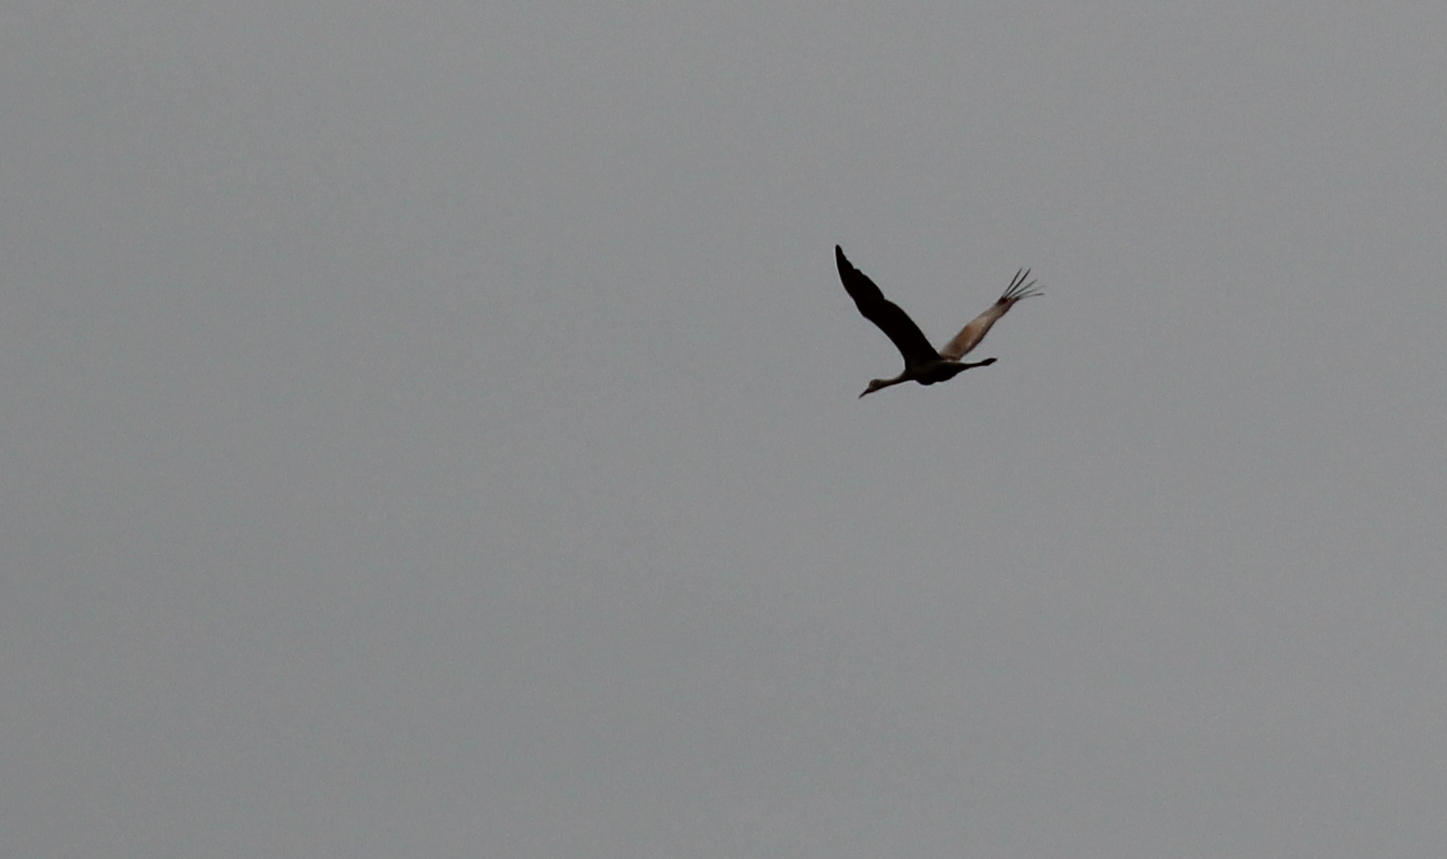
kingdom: Animalia
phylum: Chordata
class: Aves
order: Gruiformes
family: Gruidae
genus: Grus
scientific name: Grus canadensis
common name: Sandhill crane
